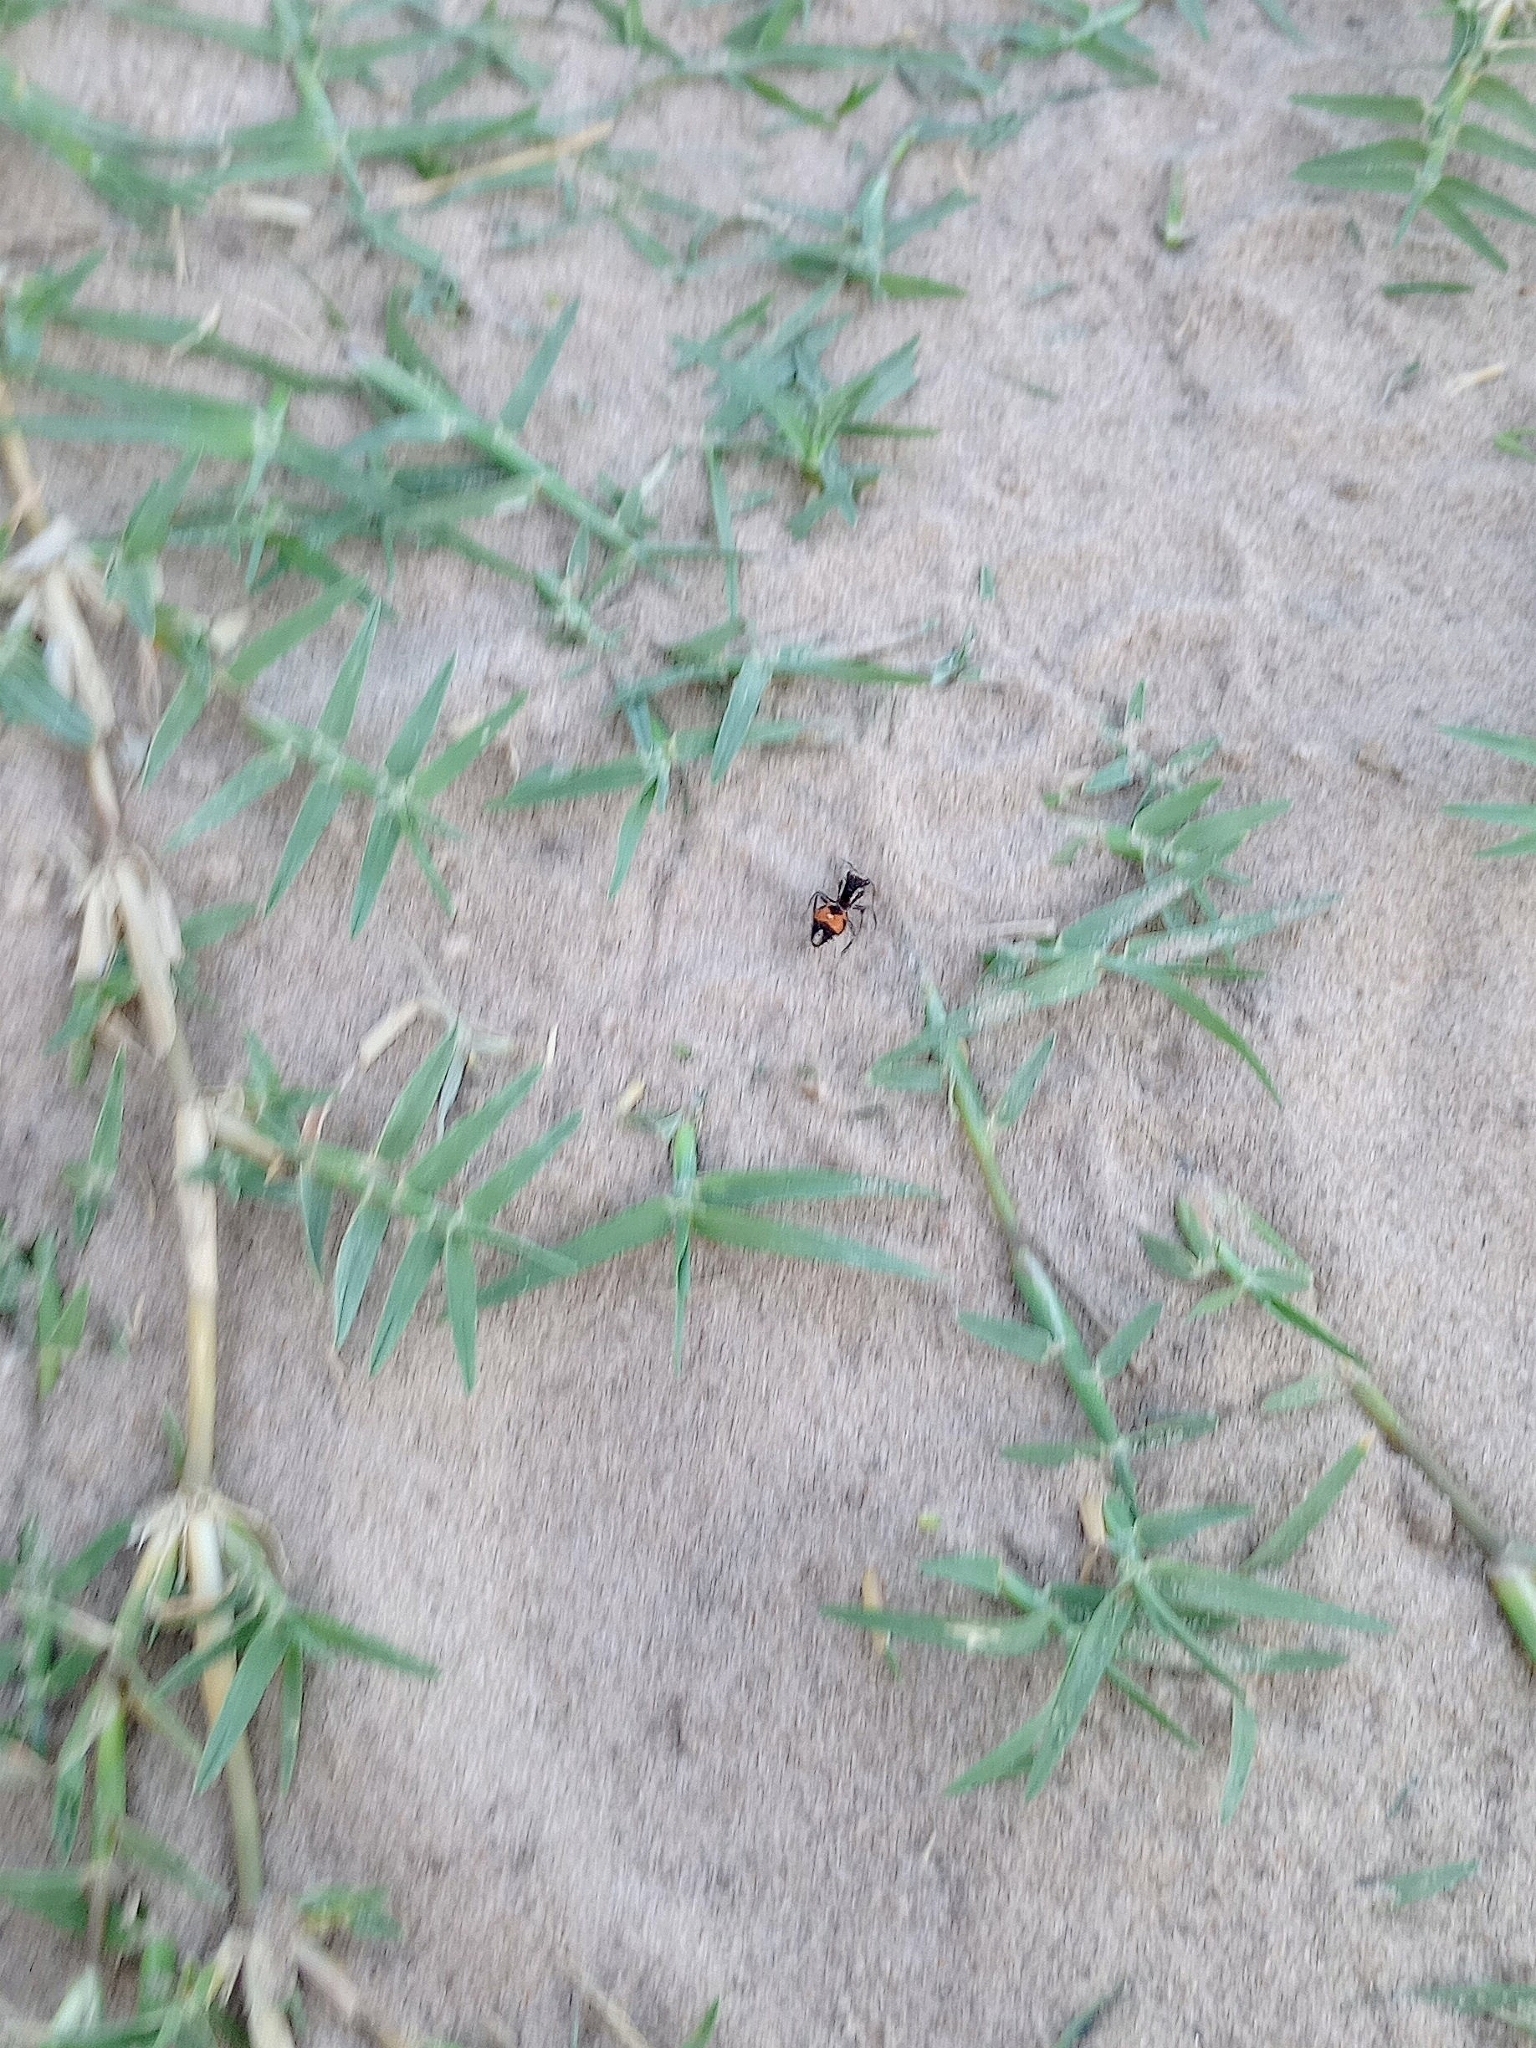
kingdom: Animalia
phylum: Arthropoda
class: Insecta
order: Hymenoptera
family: Mutillidae
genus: Traumatomutilla
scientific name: Traumatomutilla ocellaris
